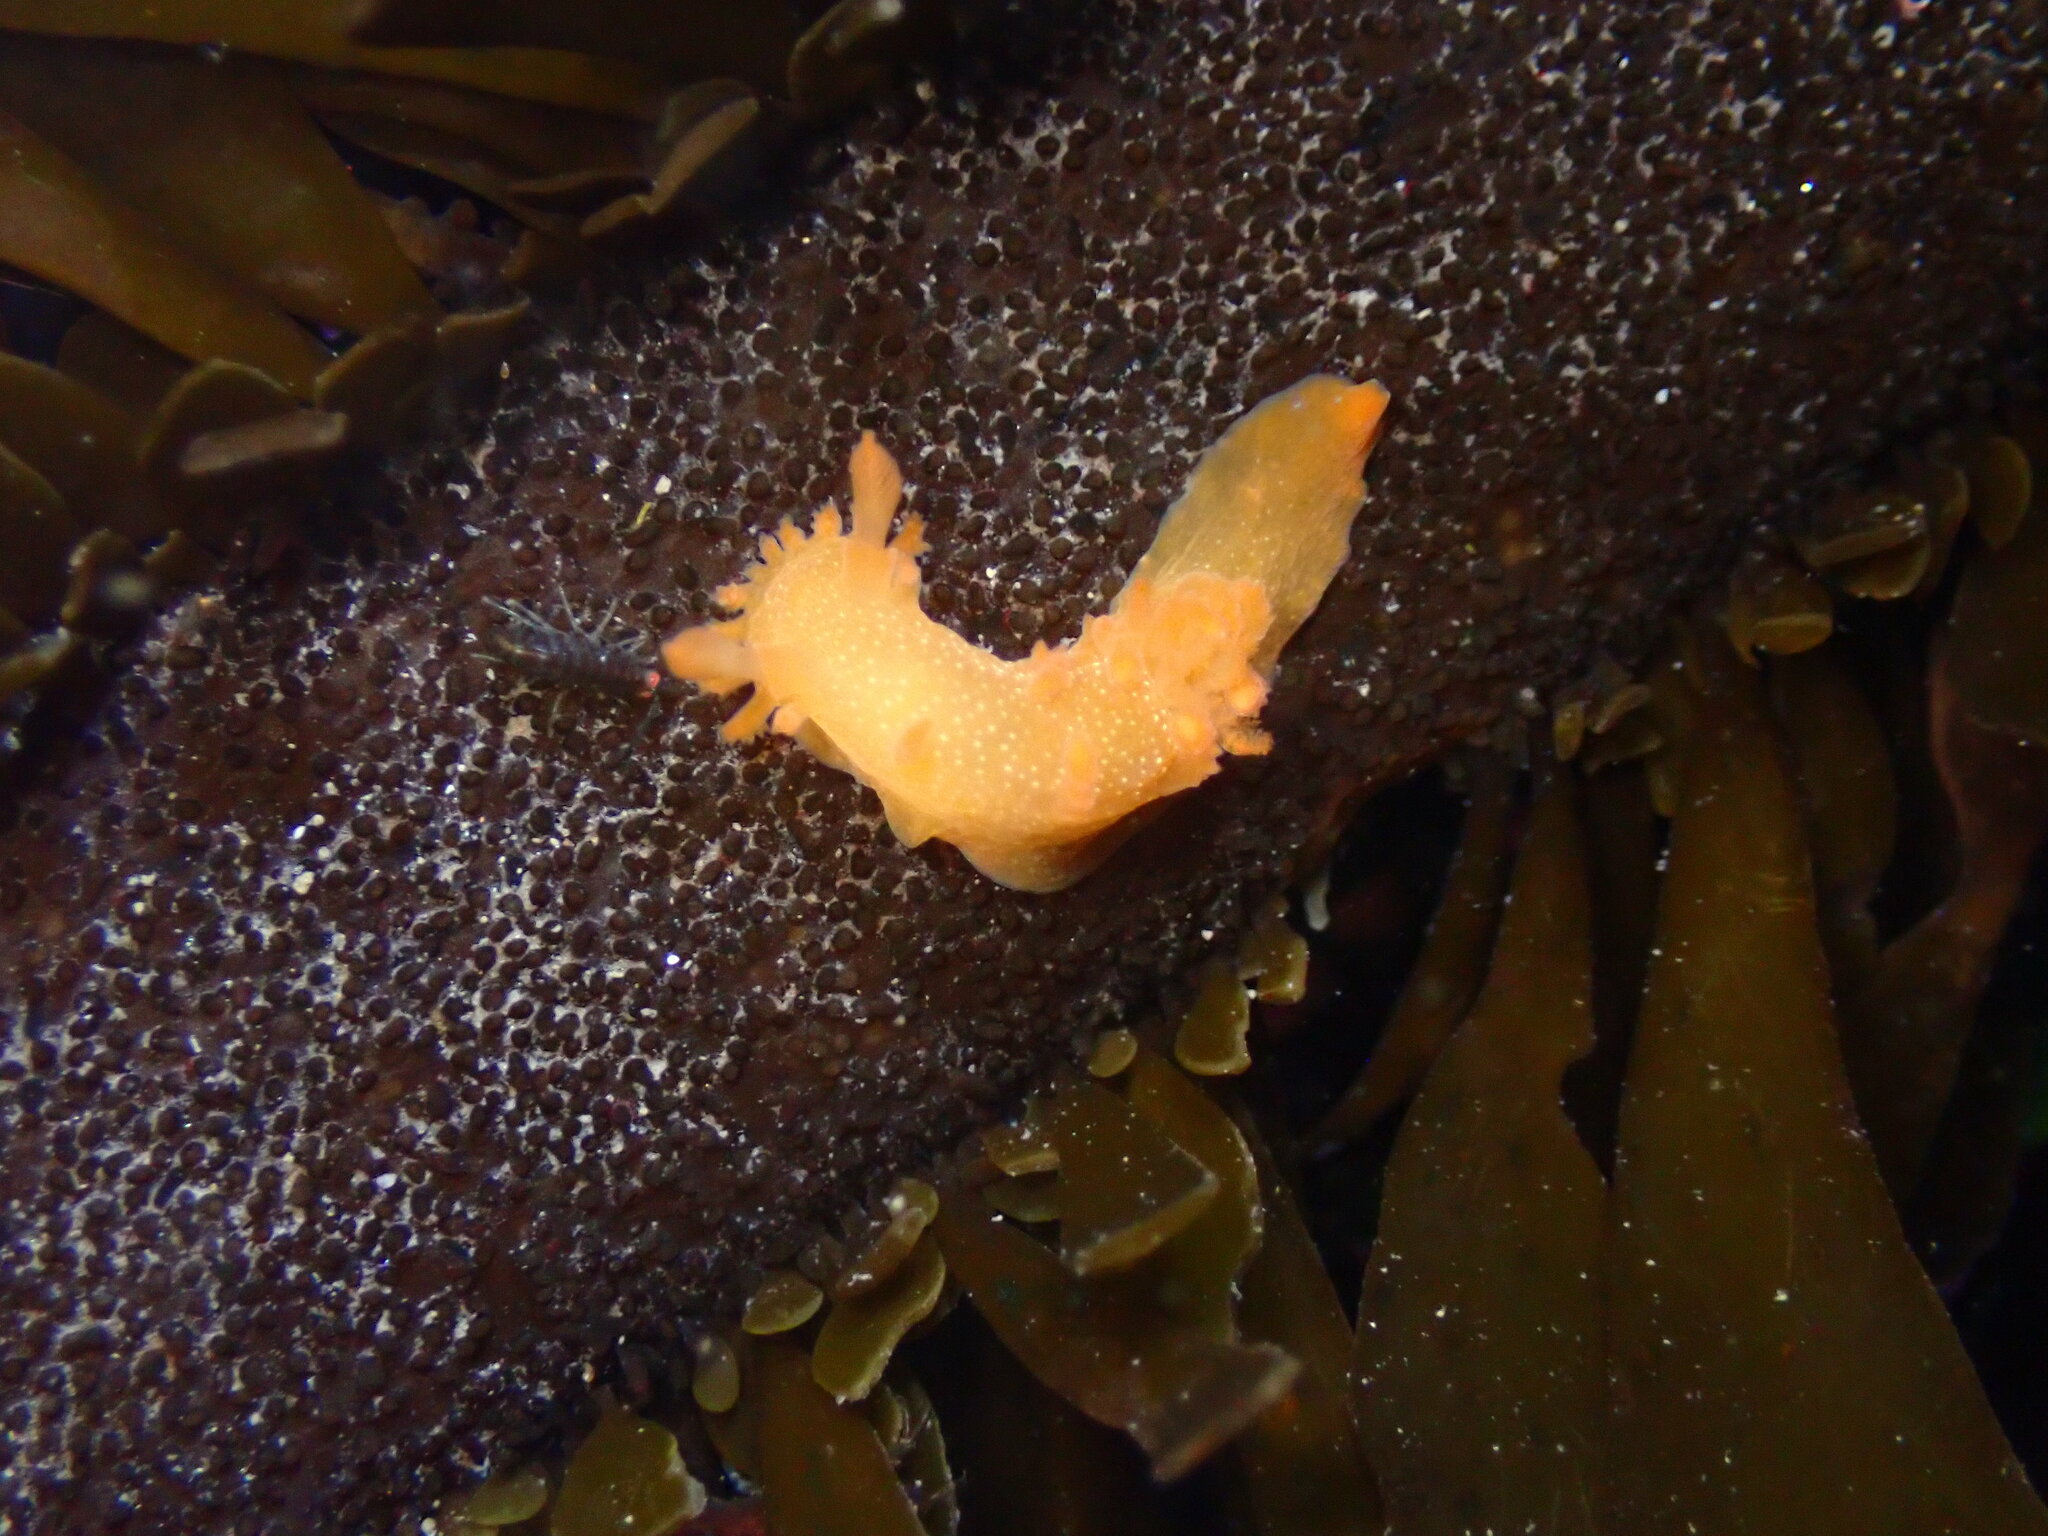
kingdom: Animalia
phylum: Mollusca
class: Gastropoda
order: Nudibranchia
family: Polyceridae
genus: Triopha
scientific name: Triopha maculata
